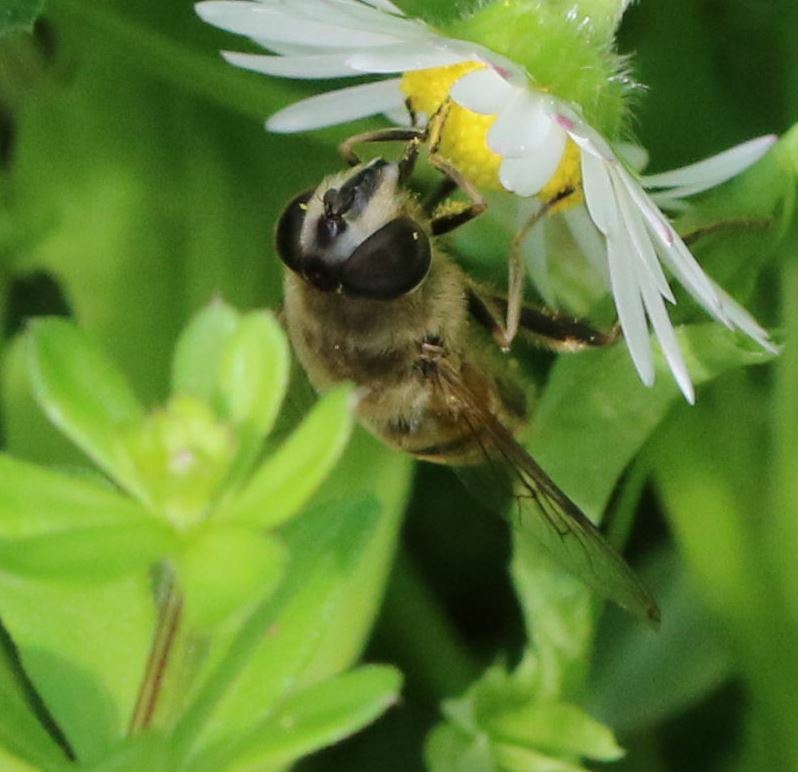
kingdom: Animalia
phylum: Arthropoda
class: Insecta
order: Diptera
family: Syrphidae
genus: Eristalis
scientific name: Eristalis tenax
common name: Drone fly
